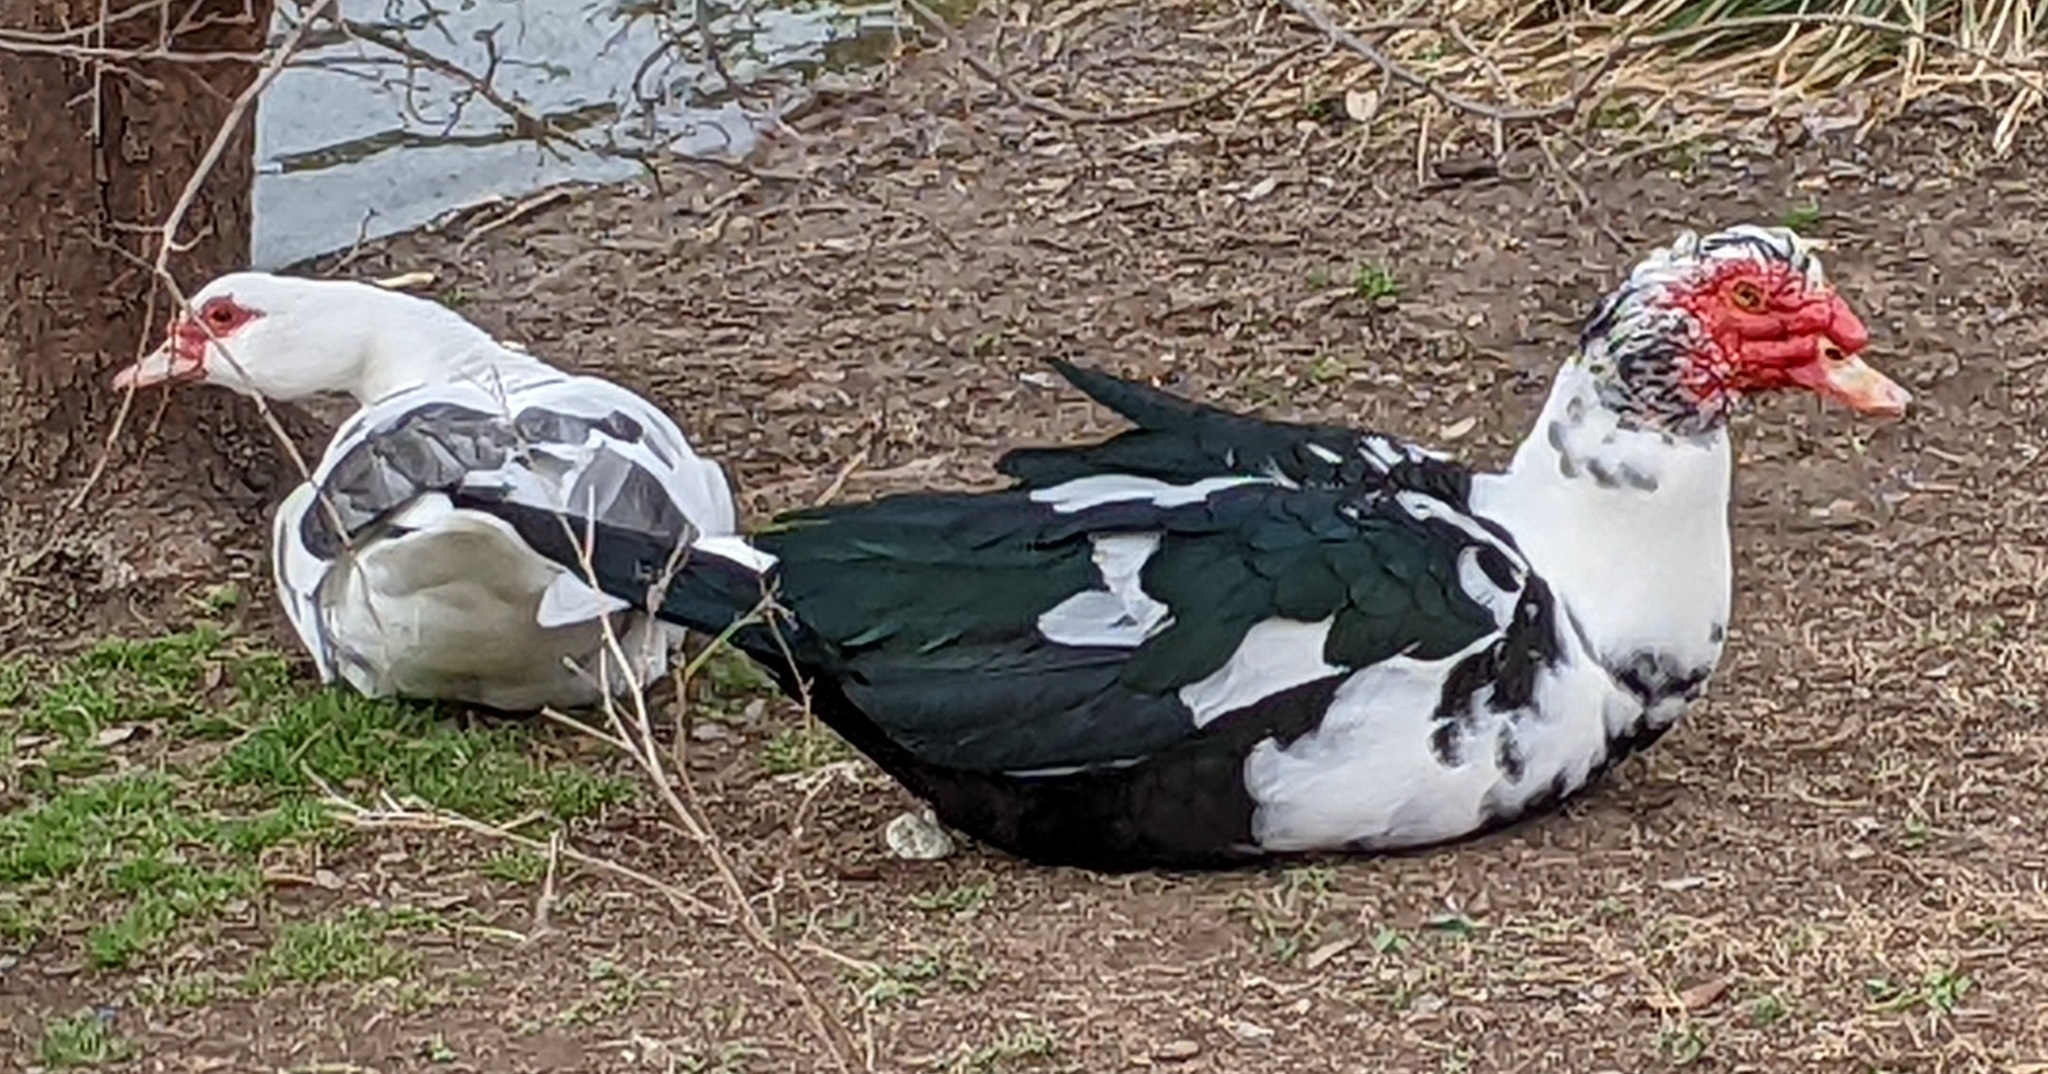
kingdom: Animalia
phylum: Chordata
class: Aves
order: Anseriformes
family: Anatidae
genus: Cairina
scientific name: Cairina moschata
